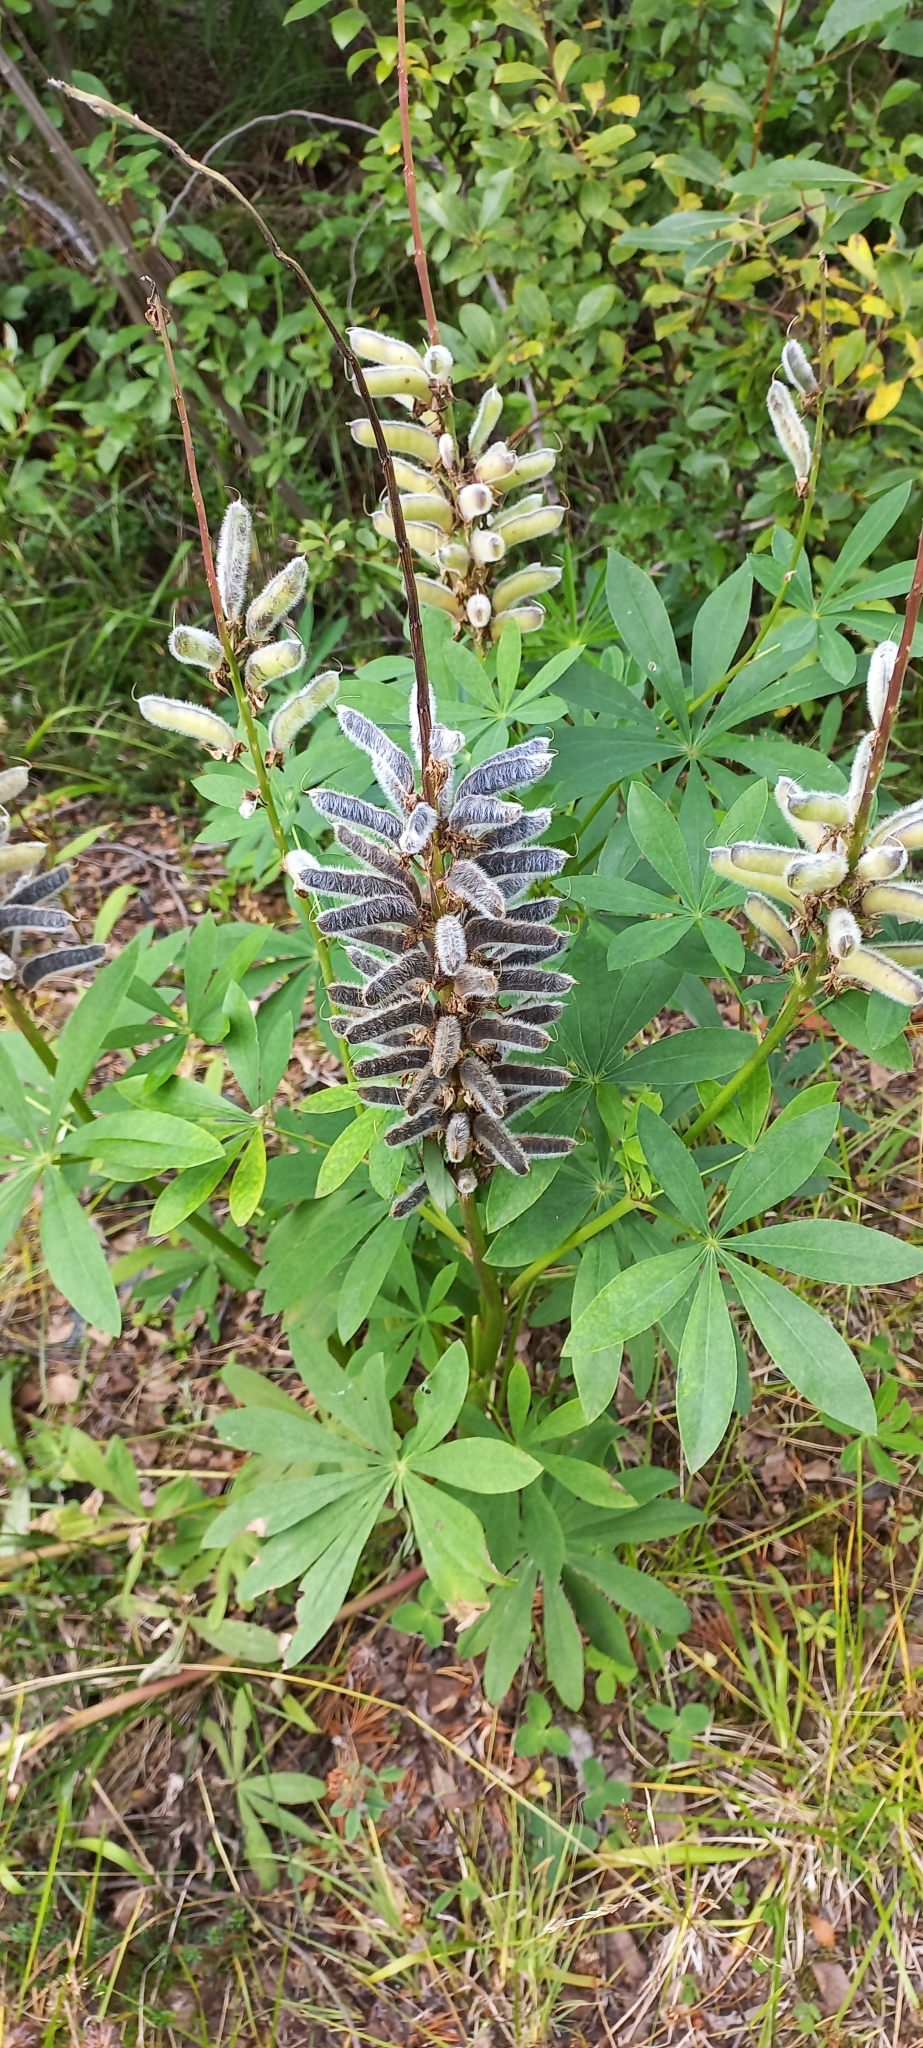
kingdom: Plantae
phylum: Tracheophyta
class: Magnoliopsida
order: Fabales
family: Fabaceae
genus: Lupinus
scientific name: Lupinus polyphyllus
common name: Garden lupin
